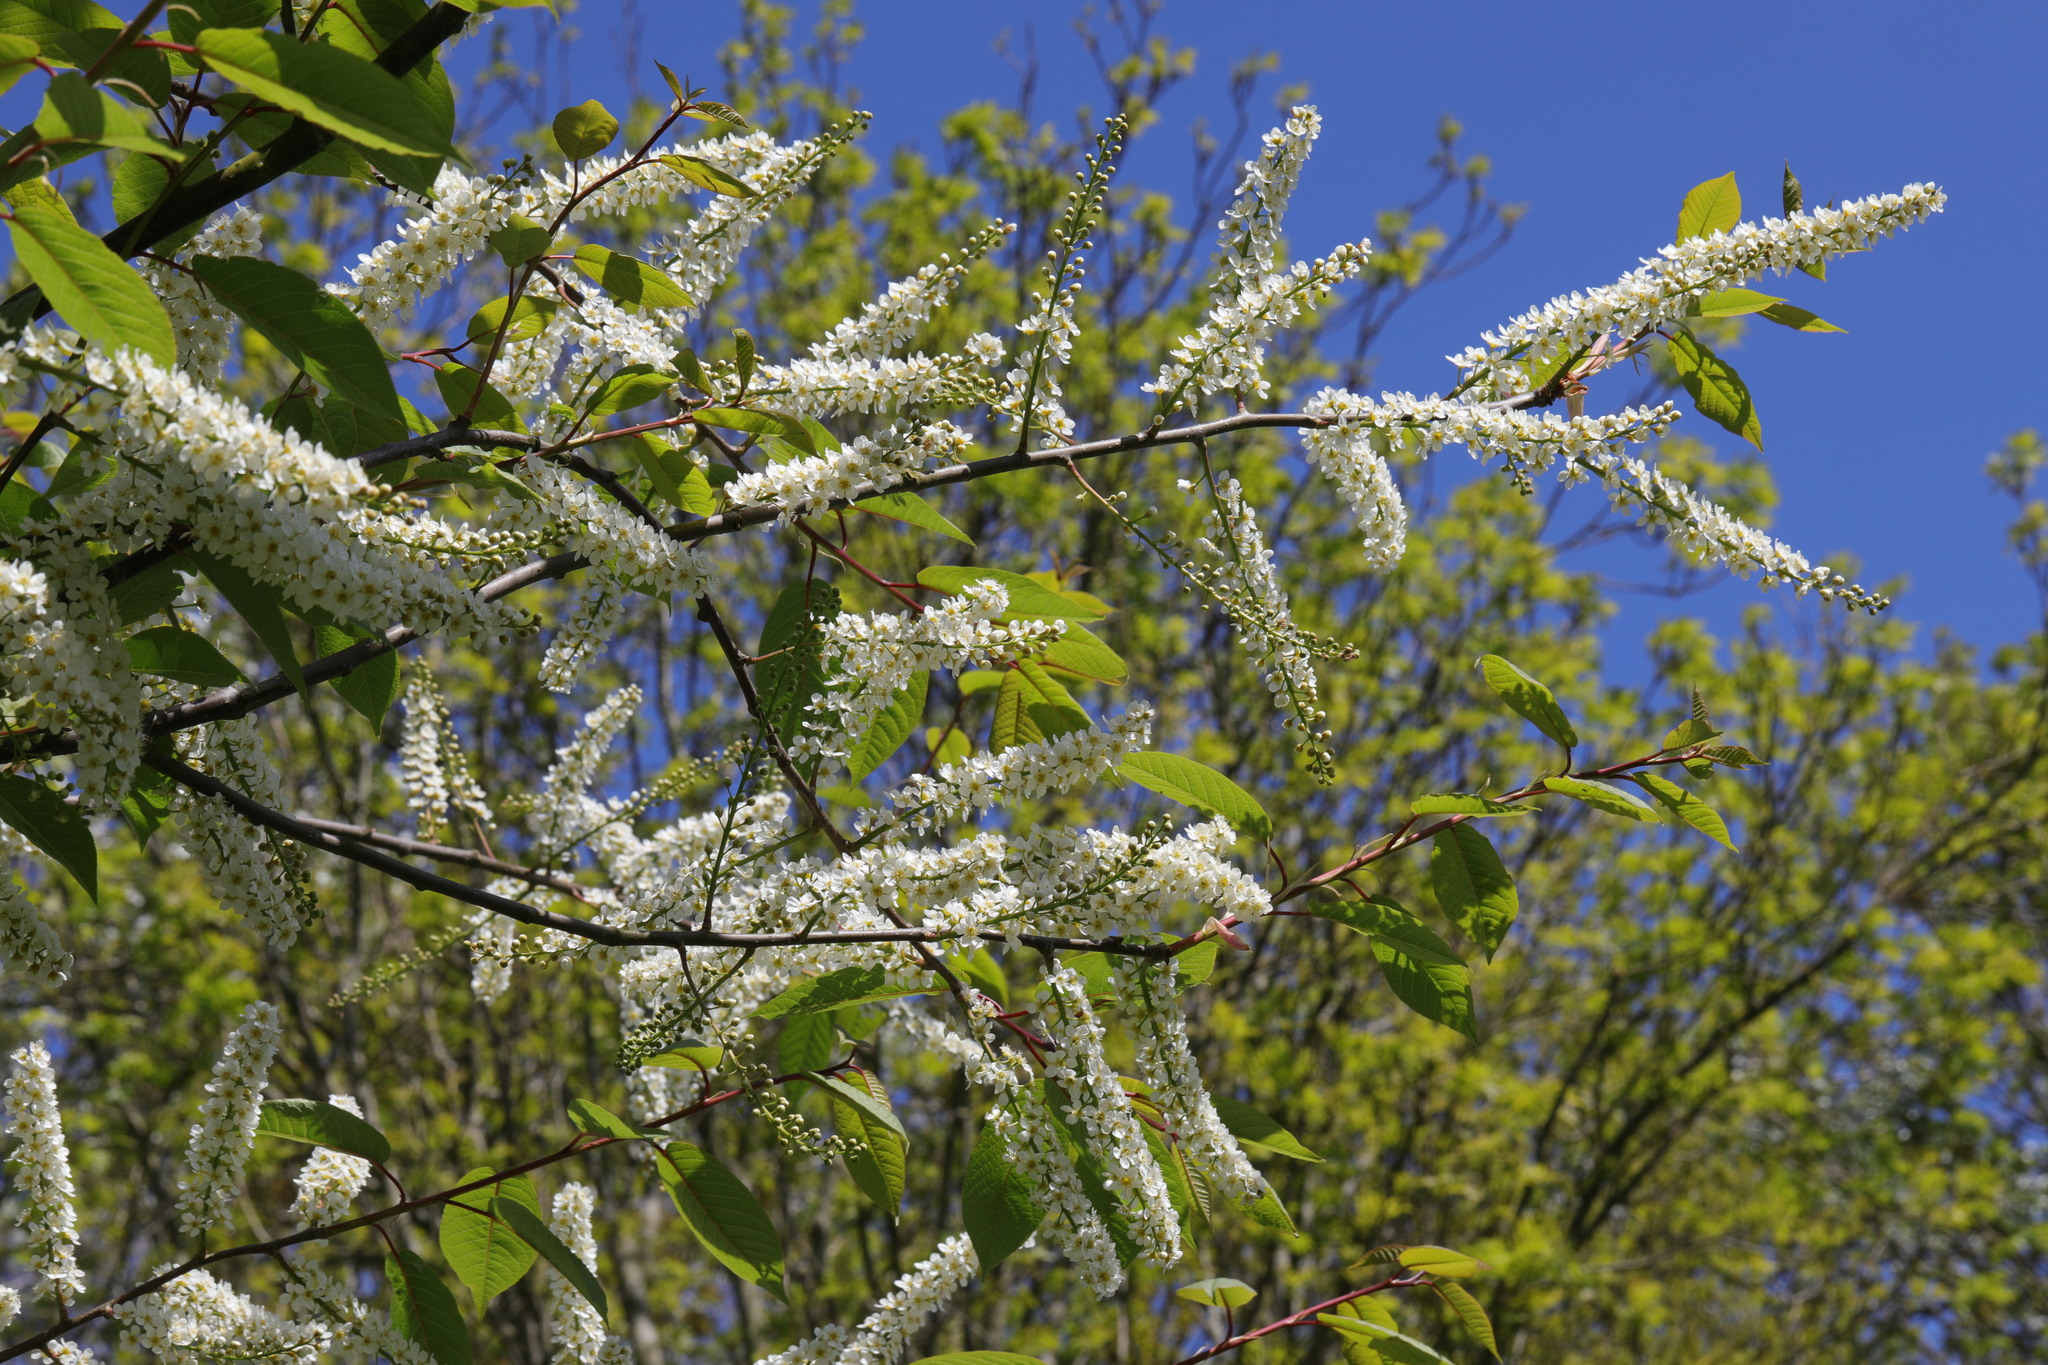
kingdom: Plantae
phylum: Tracheophyta
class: Magnoliopsida
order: Rosales
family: Rosaceae
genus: Prunus
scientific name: Prunus padus
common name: Bird cherry
